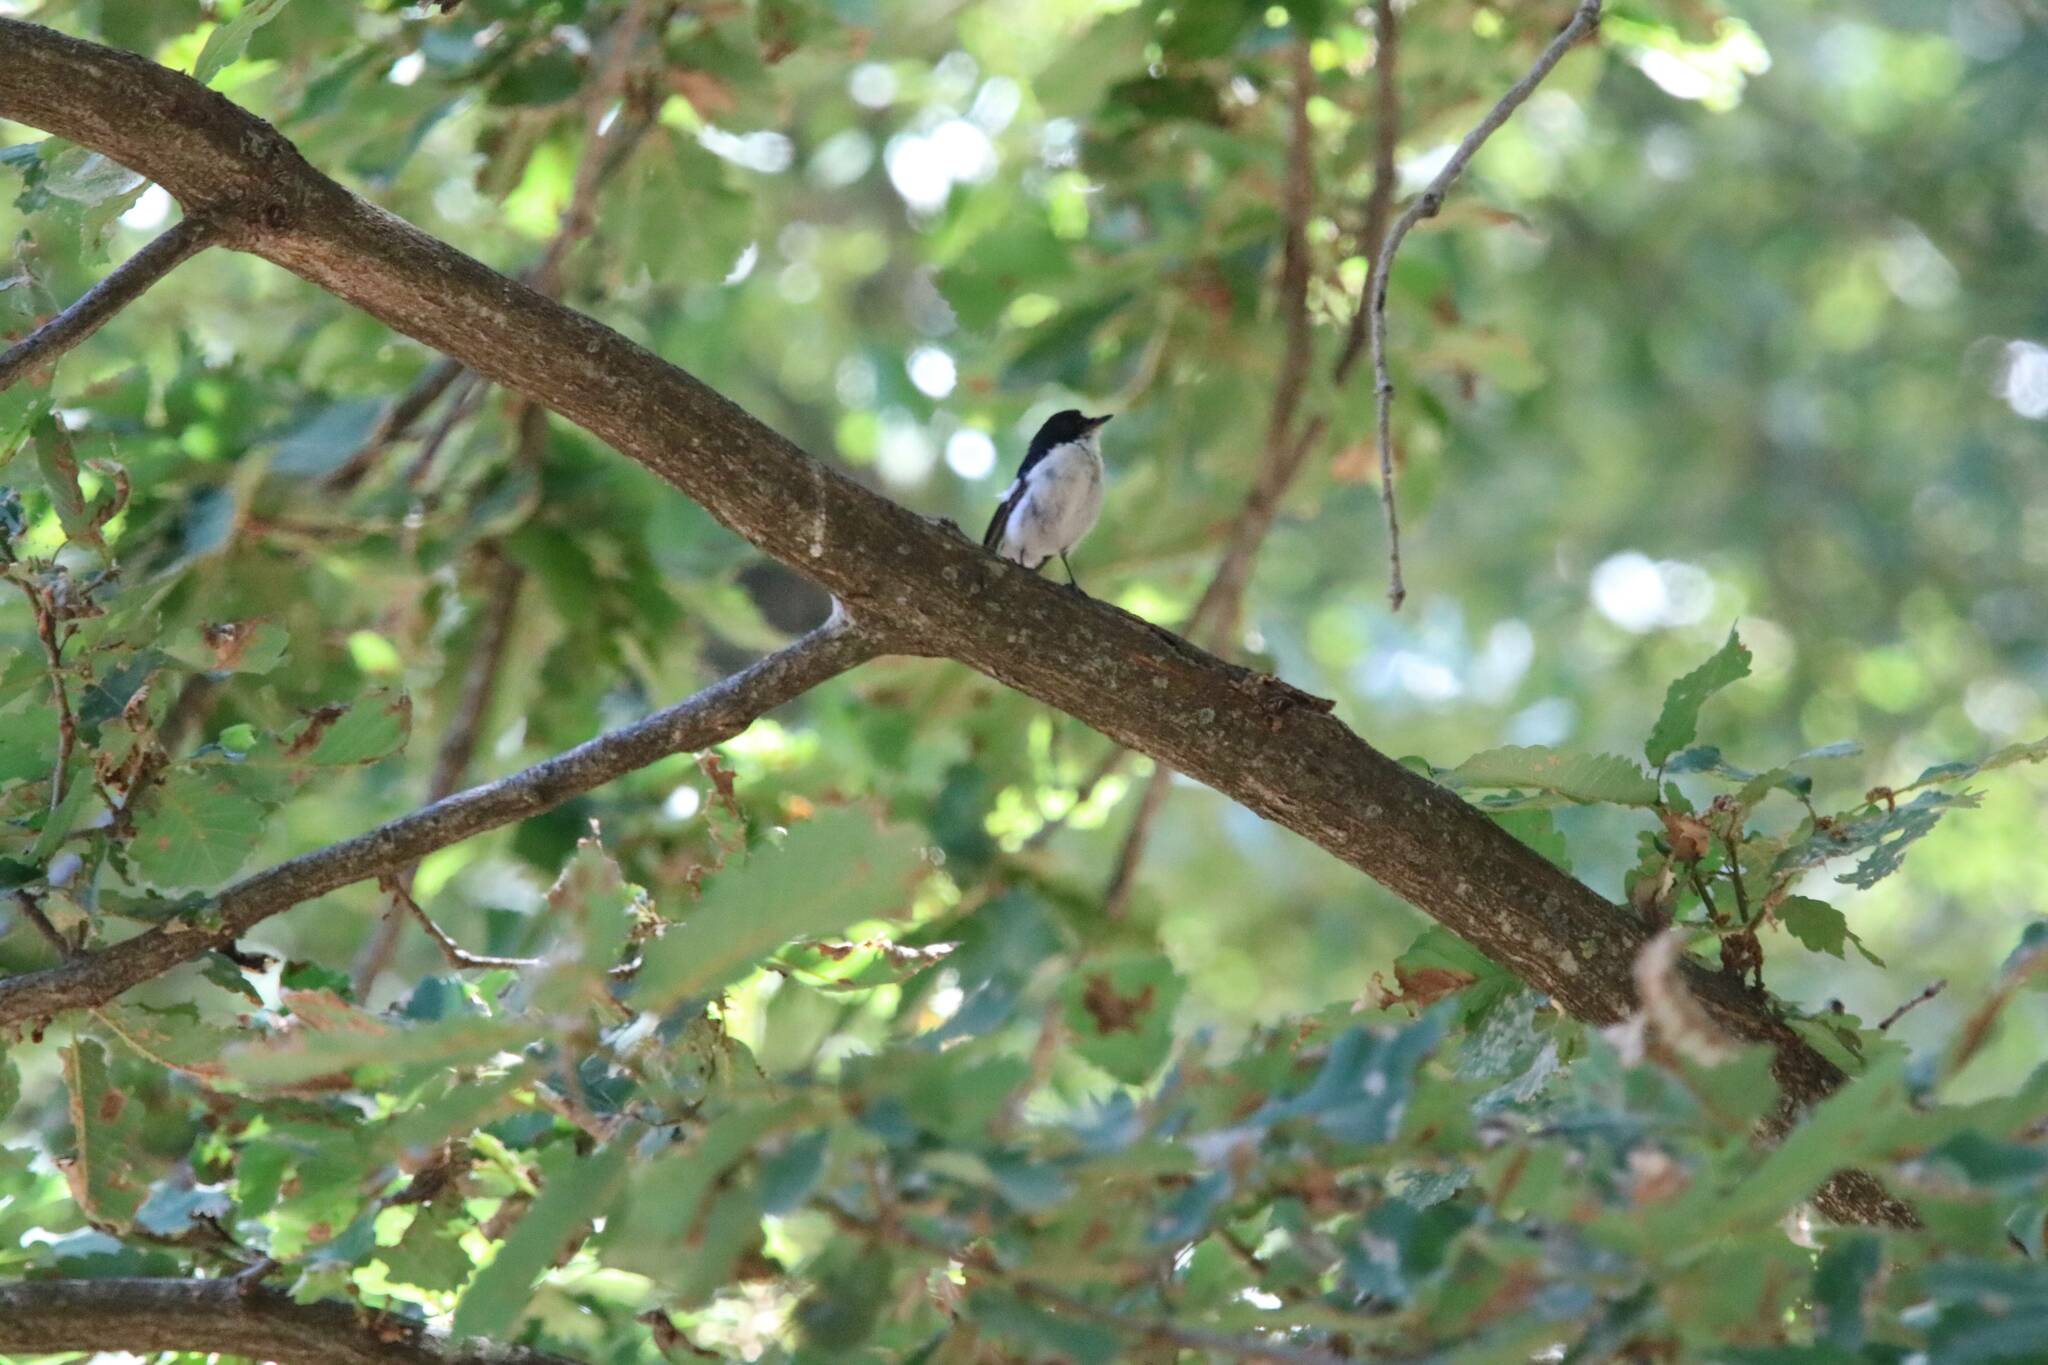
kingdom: Animalia
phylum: Chordata
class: Aves
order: Passeriformes
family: Muscicapidae
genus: Ficedula
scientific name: Ficedula speculigera
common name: Atlas pied flycatcher
